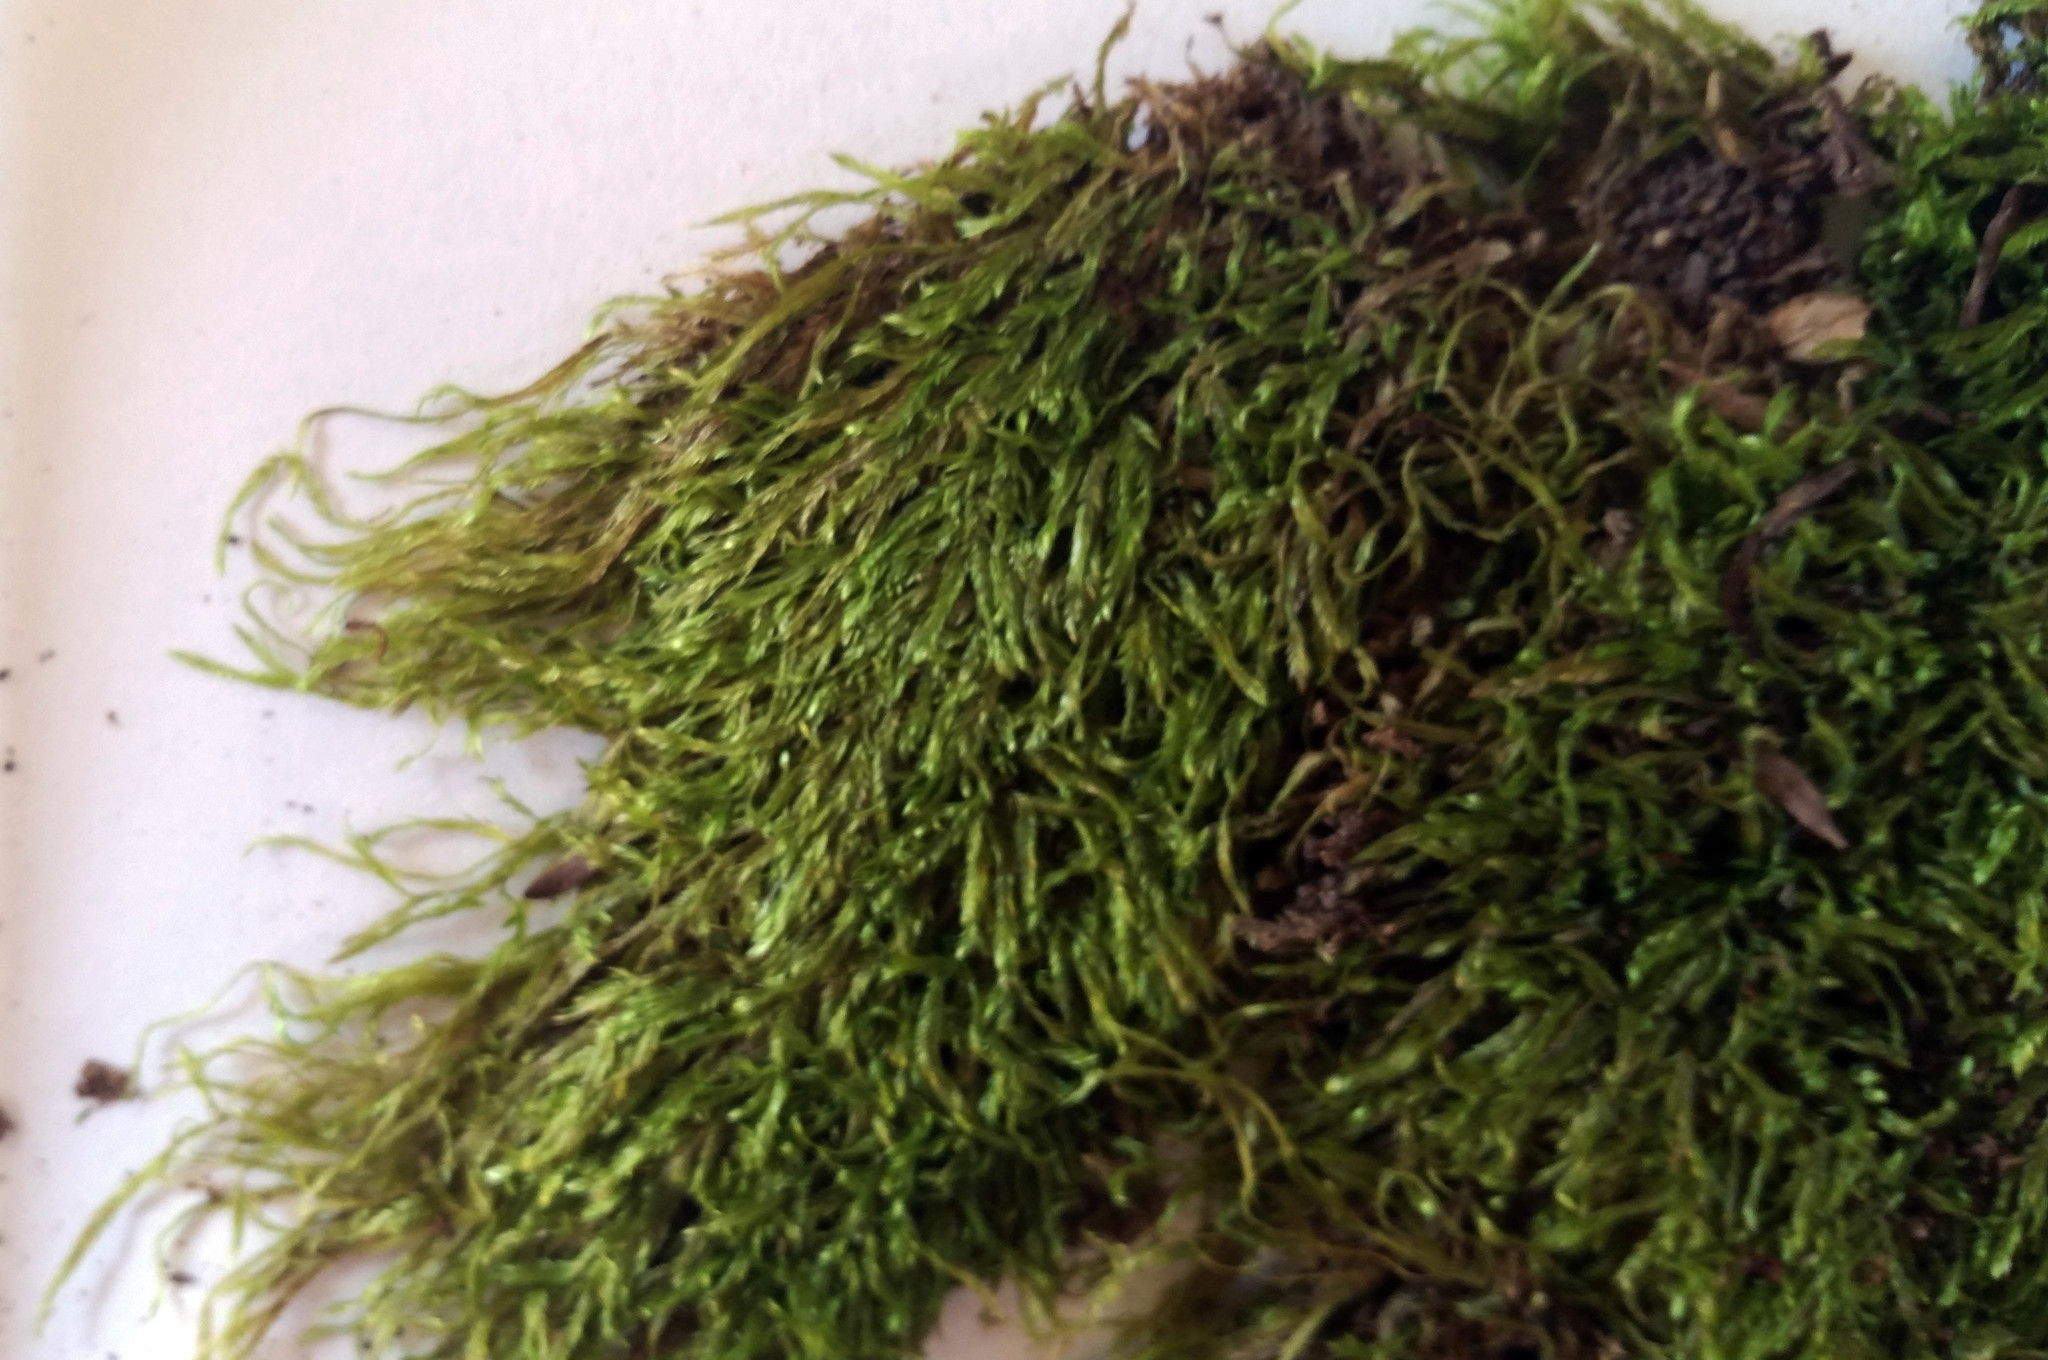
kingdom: Plantae
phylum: Bryophyta
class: Bryopsida
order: Hypnales
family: Catagoniaceae
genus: Catagonium
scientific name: Catagonium nitens
